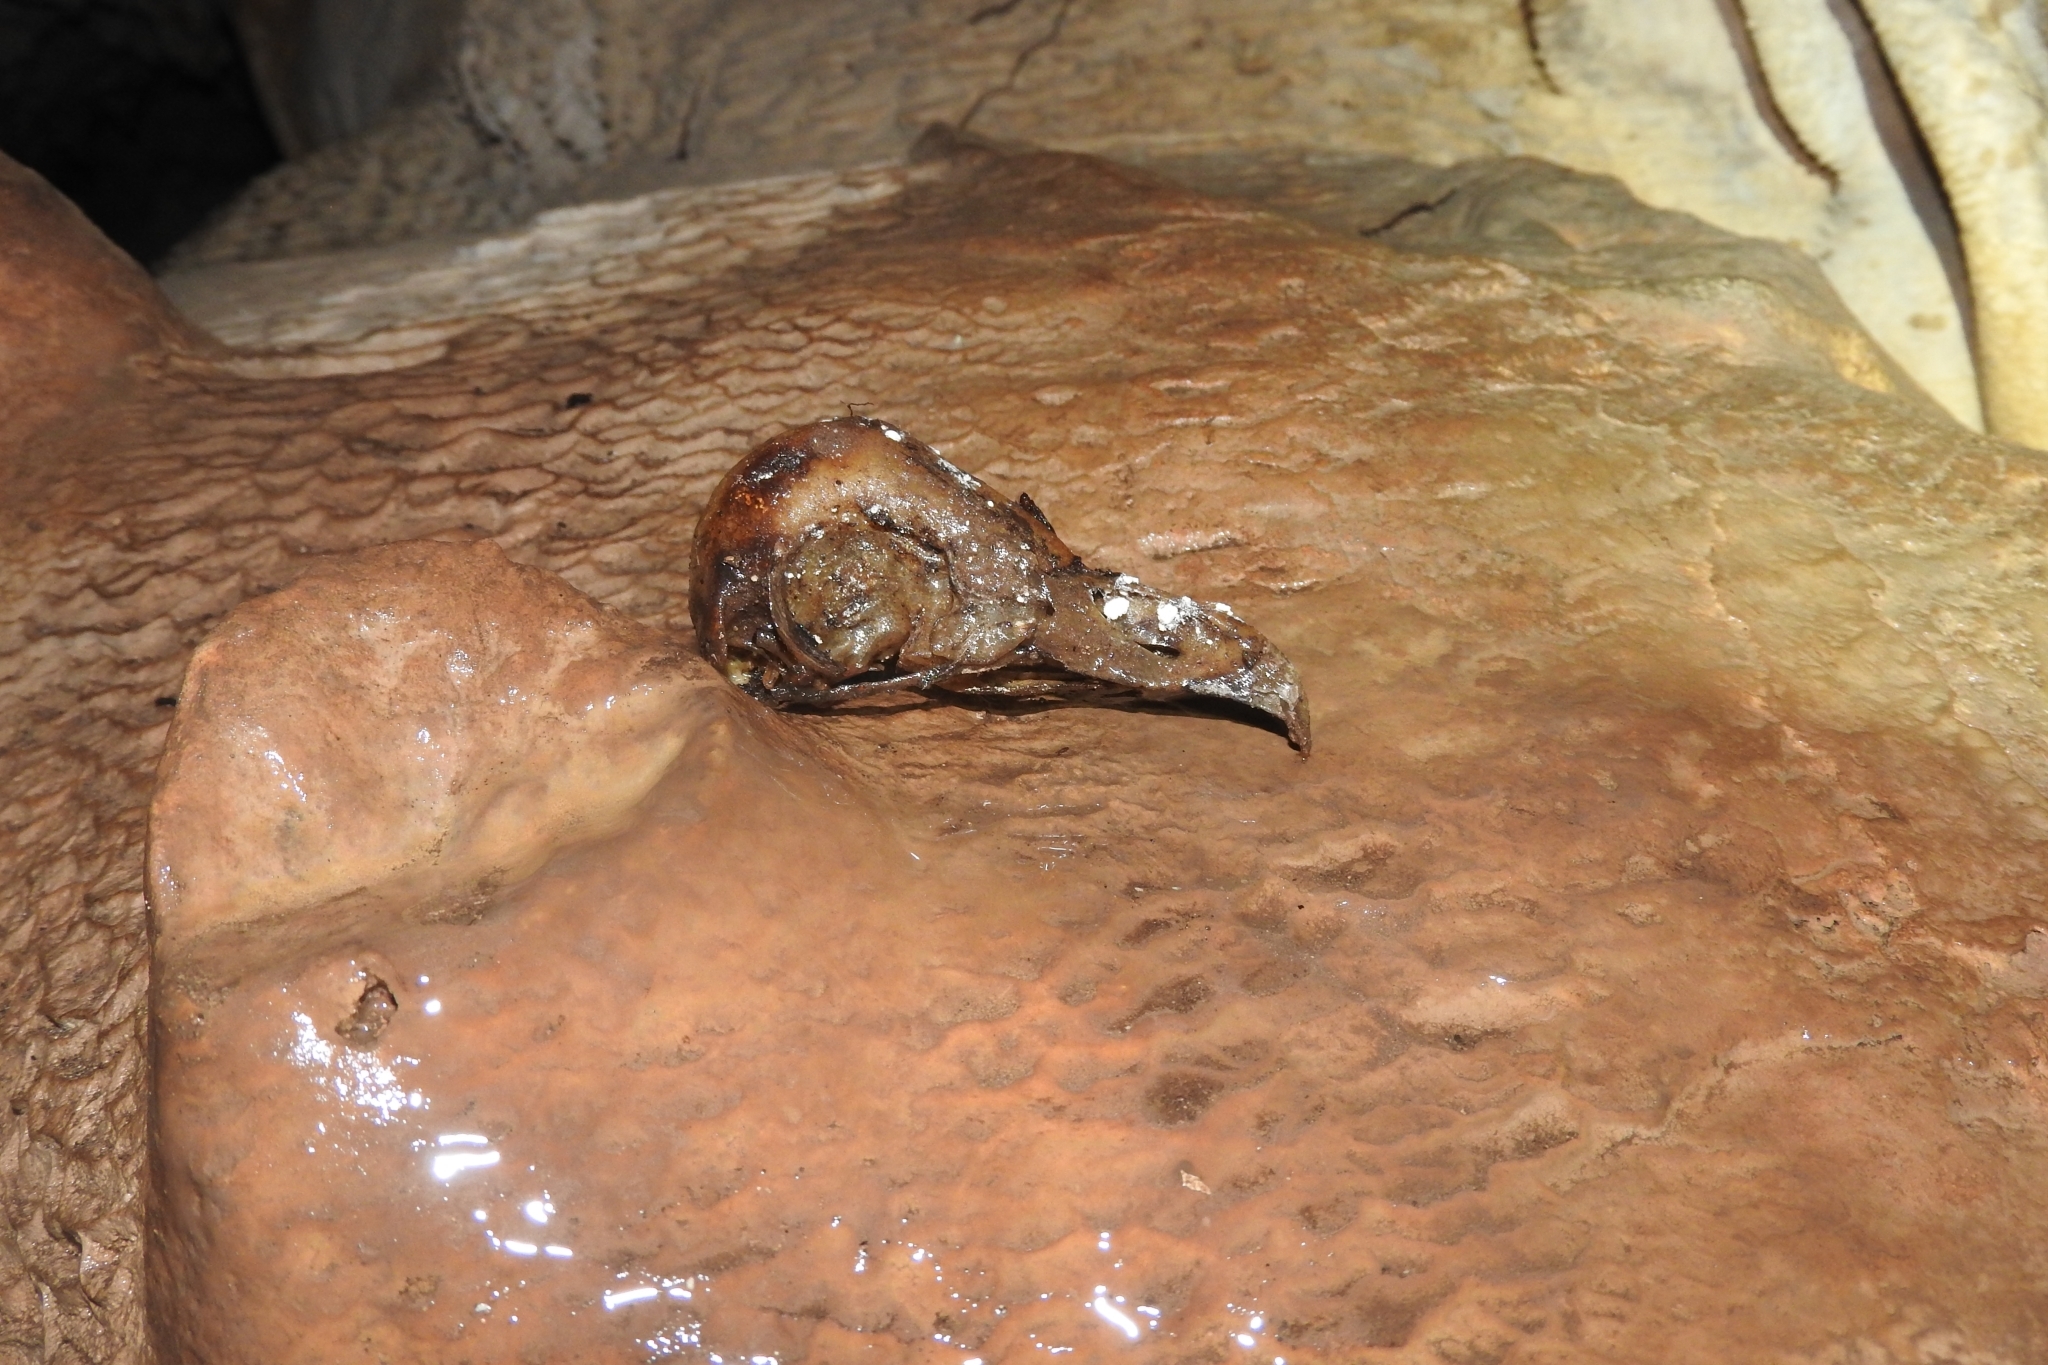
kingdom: Animalia
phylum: Chordata
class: Aves
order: Strigiformes
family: Tytonidae
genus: Tyto
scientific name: Tyto alba
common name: Barn owl
